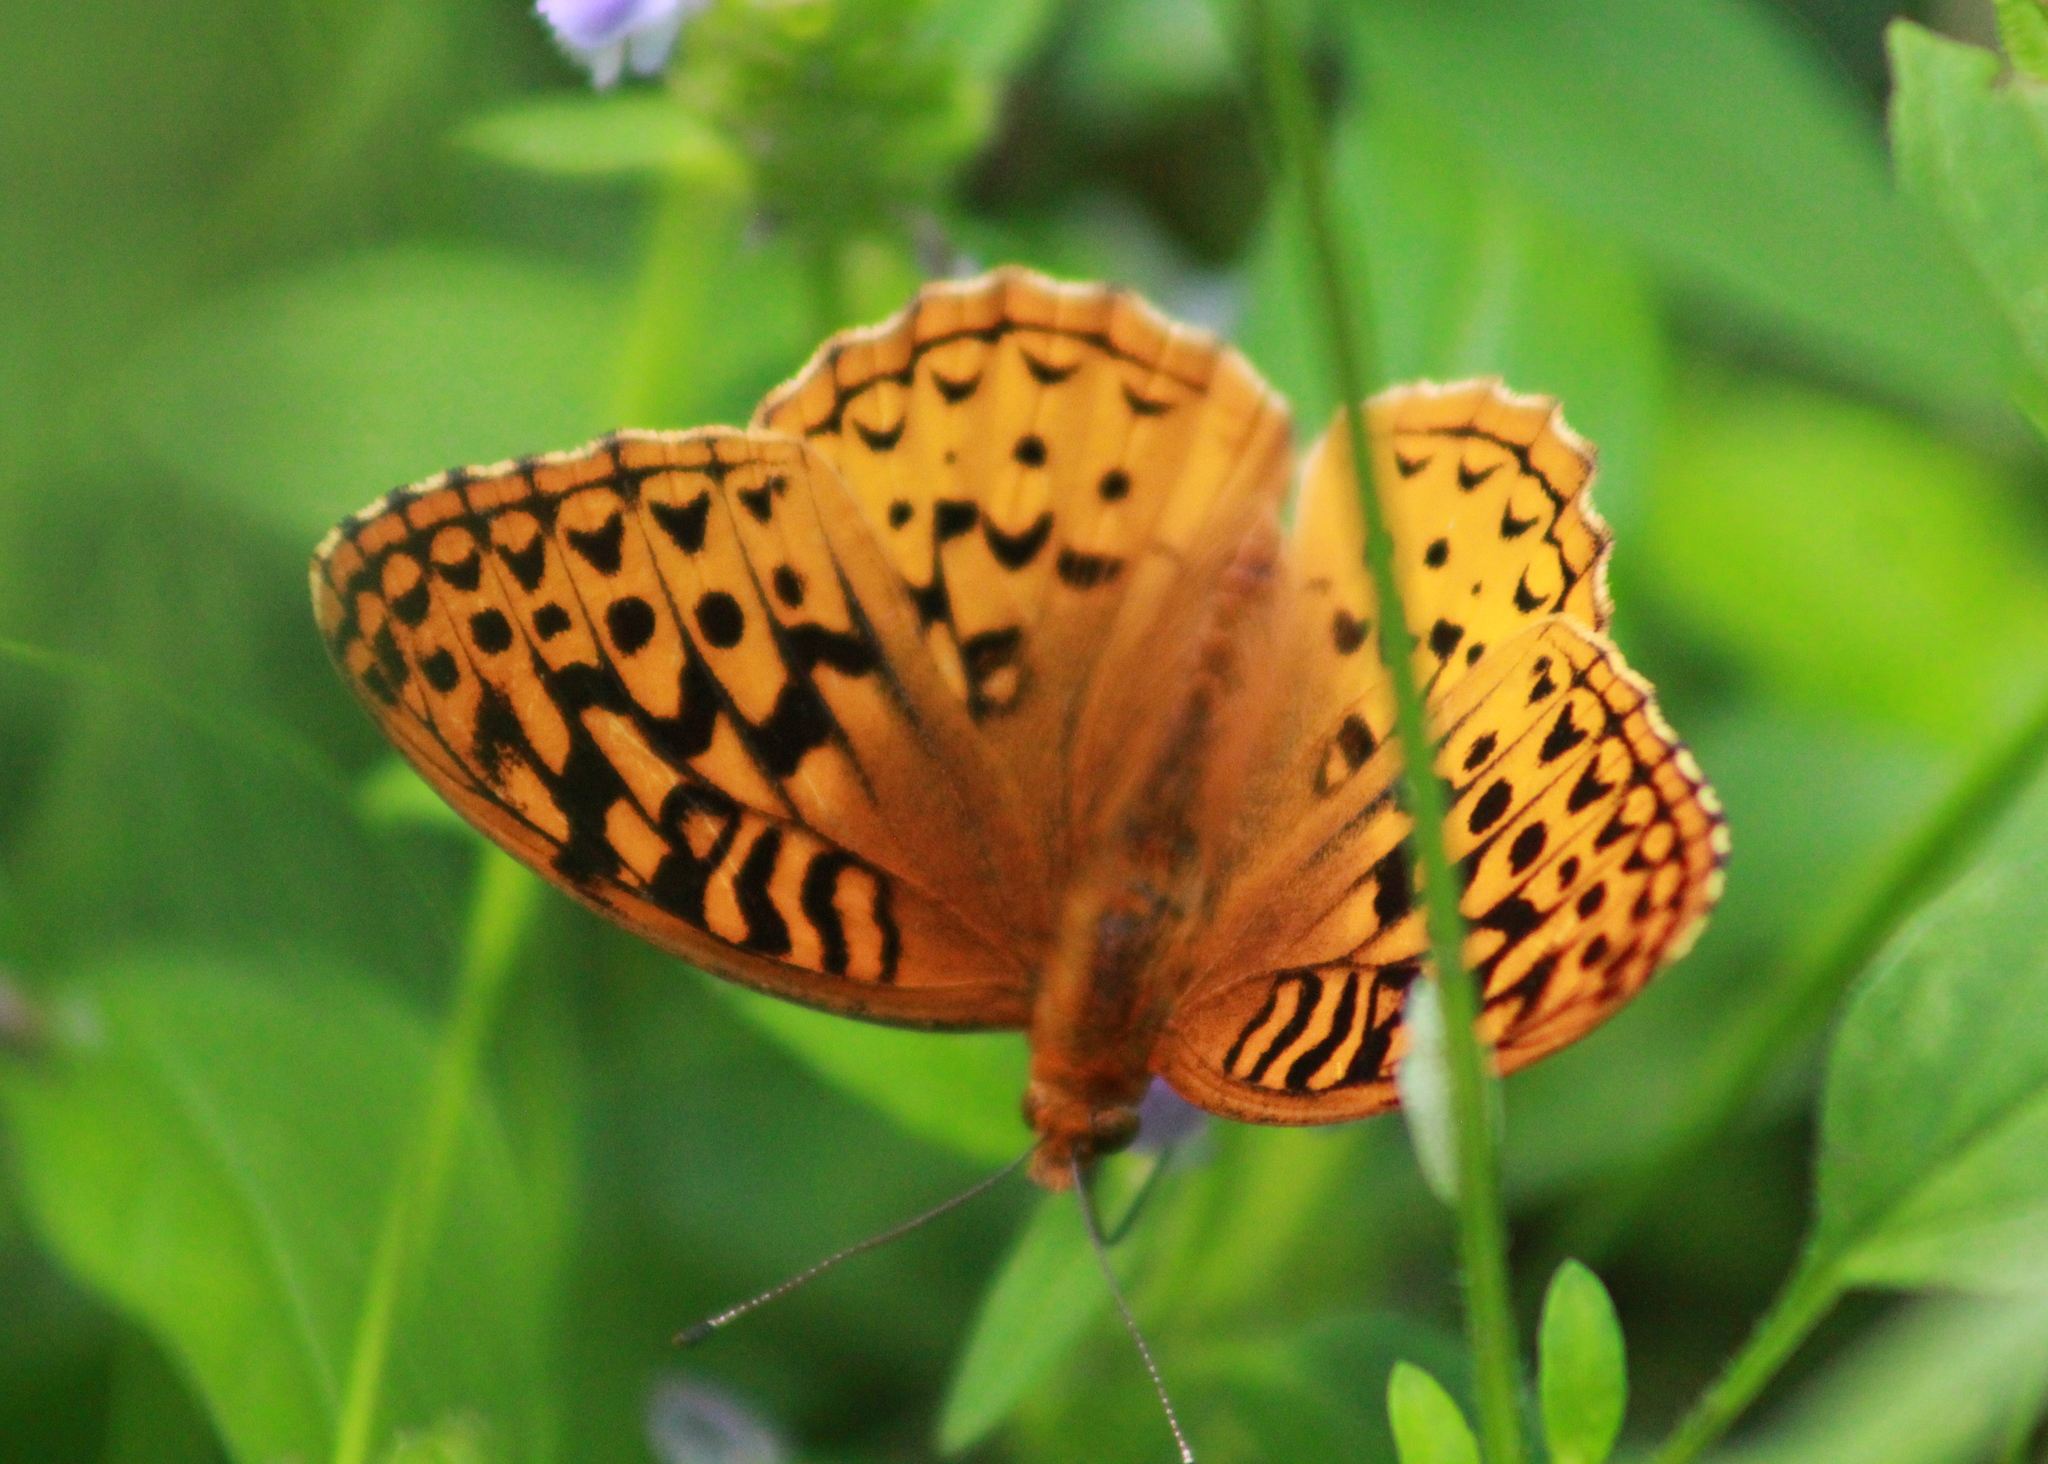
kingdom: Animalia
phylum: Arthropoda
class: Insecta
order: Lepidoptera
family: Nymphalidae
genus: Speyeria
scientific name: Speyeria cybele
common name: Great spangled fritillary
